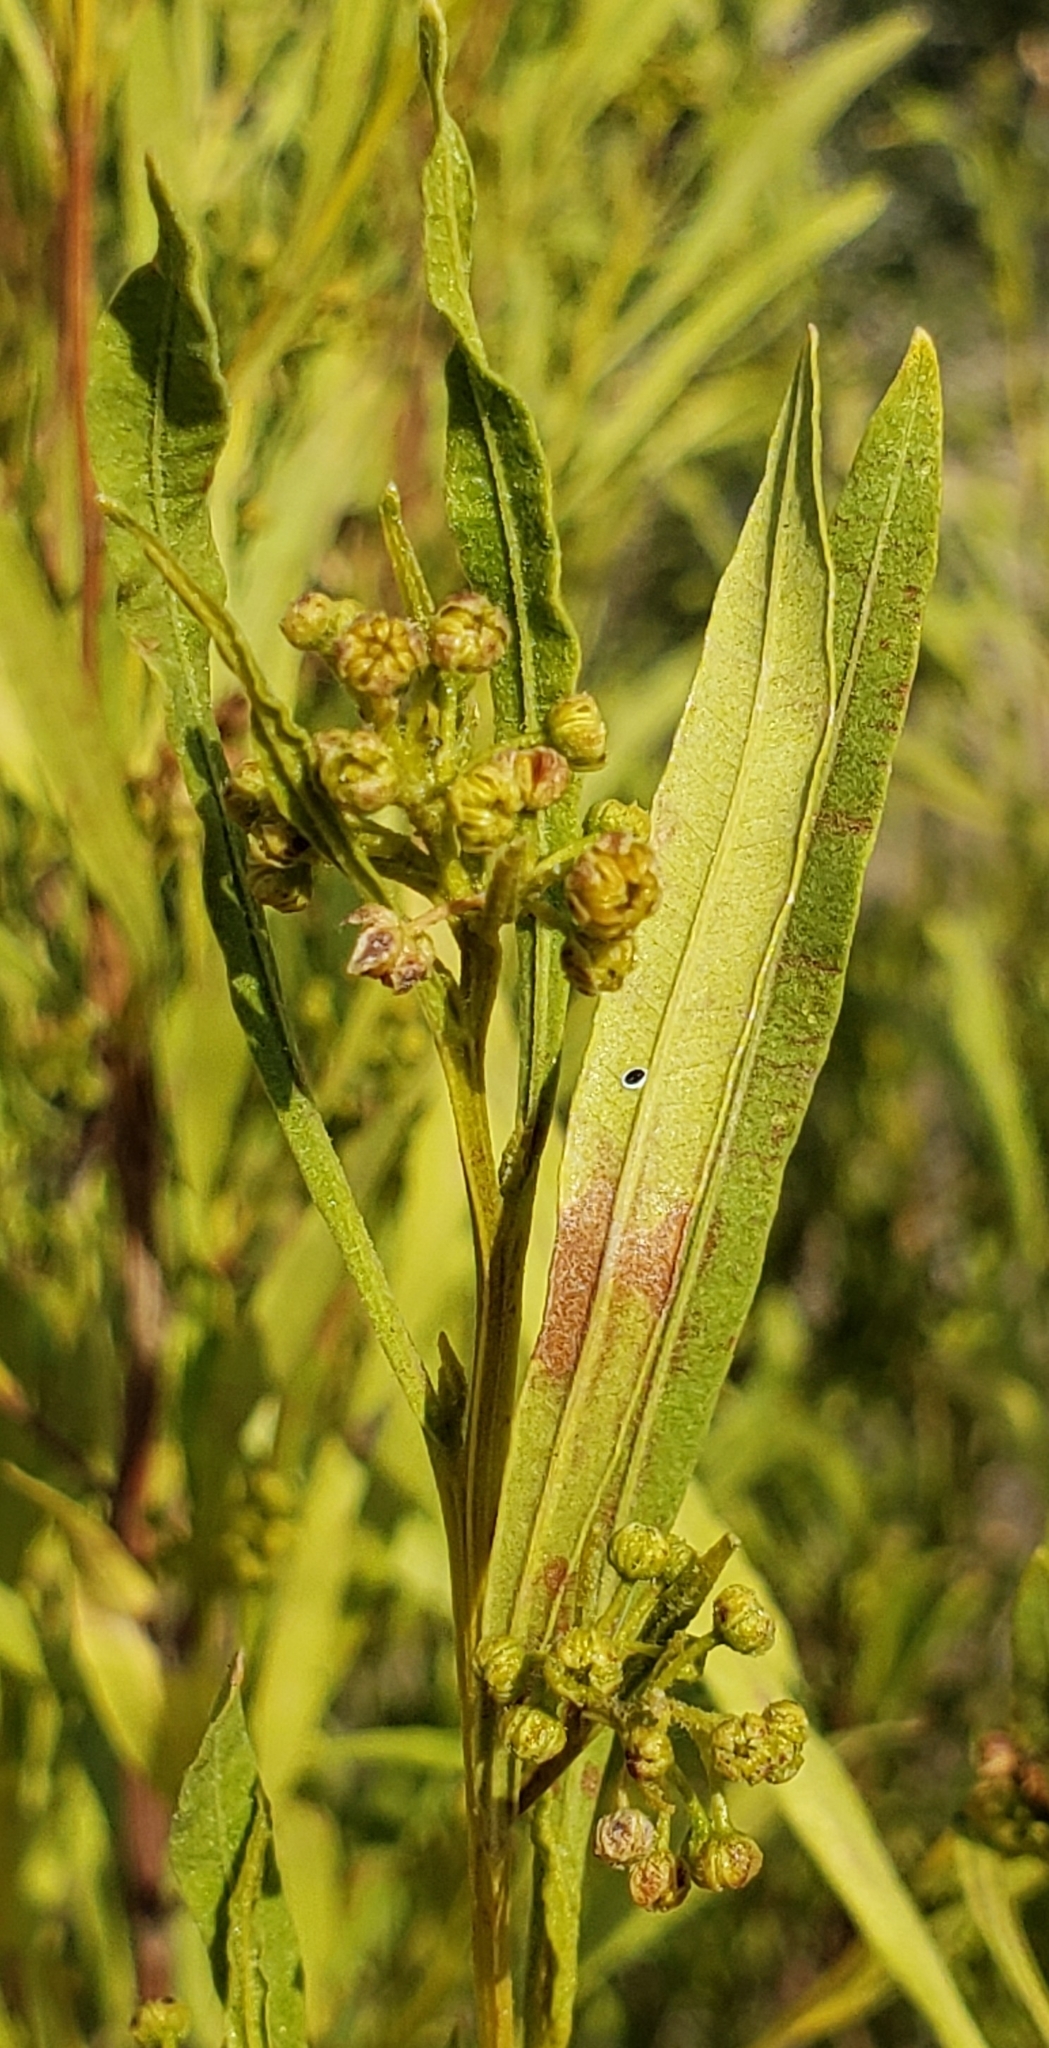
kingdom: Plantae
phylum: Tracheophyta
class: Magnoliopsida
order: Sapindales
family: Sapindaceae
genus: Dodonaea
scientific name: Dodonaea viscosa
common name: Hopbush
